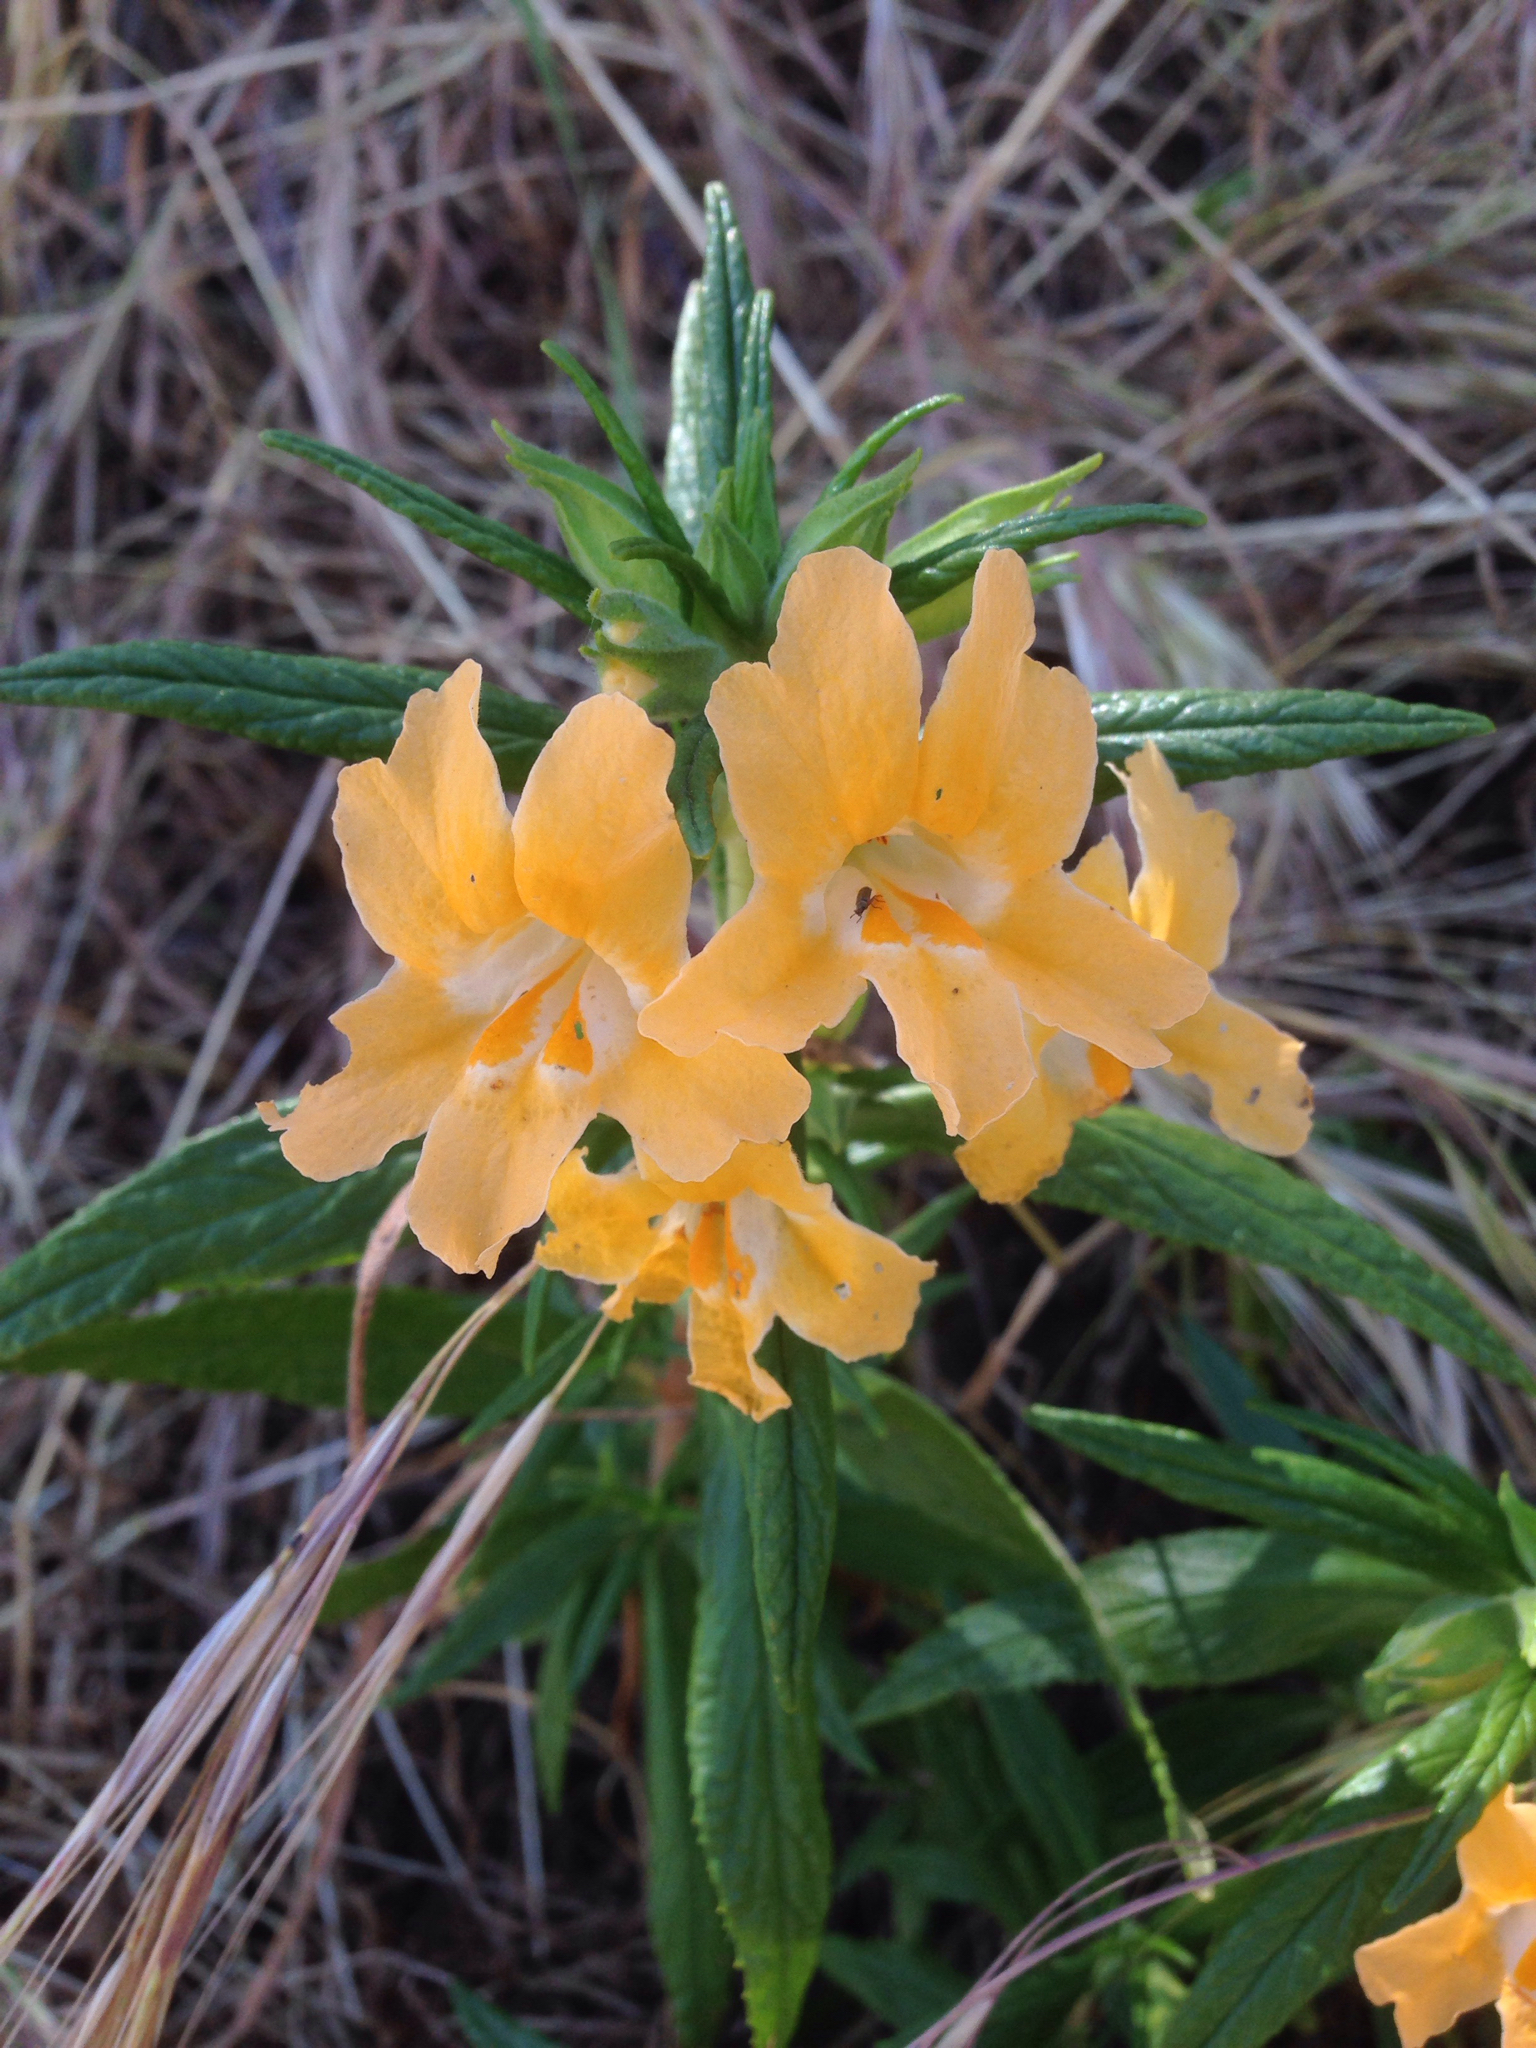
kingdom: Plantae
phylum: Tracheophyta
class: Magnoliopsida
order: Lamiales
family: Phrymaceae
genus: Diplacus
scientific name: Diplacus longiflorus
